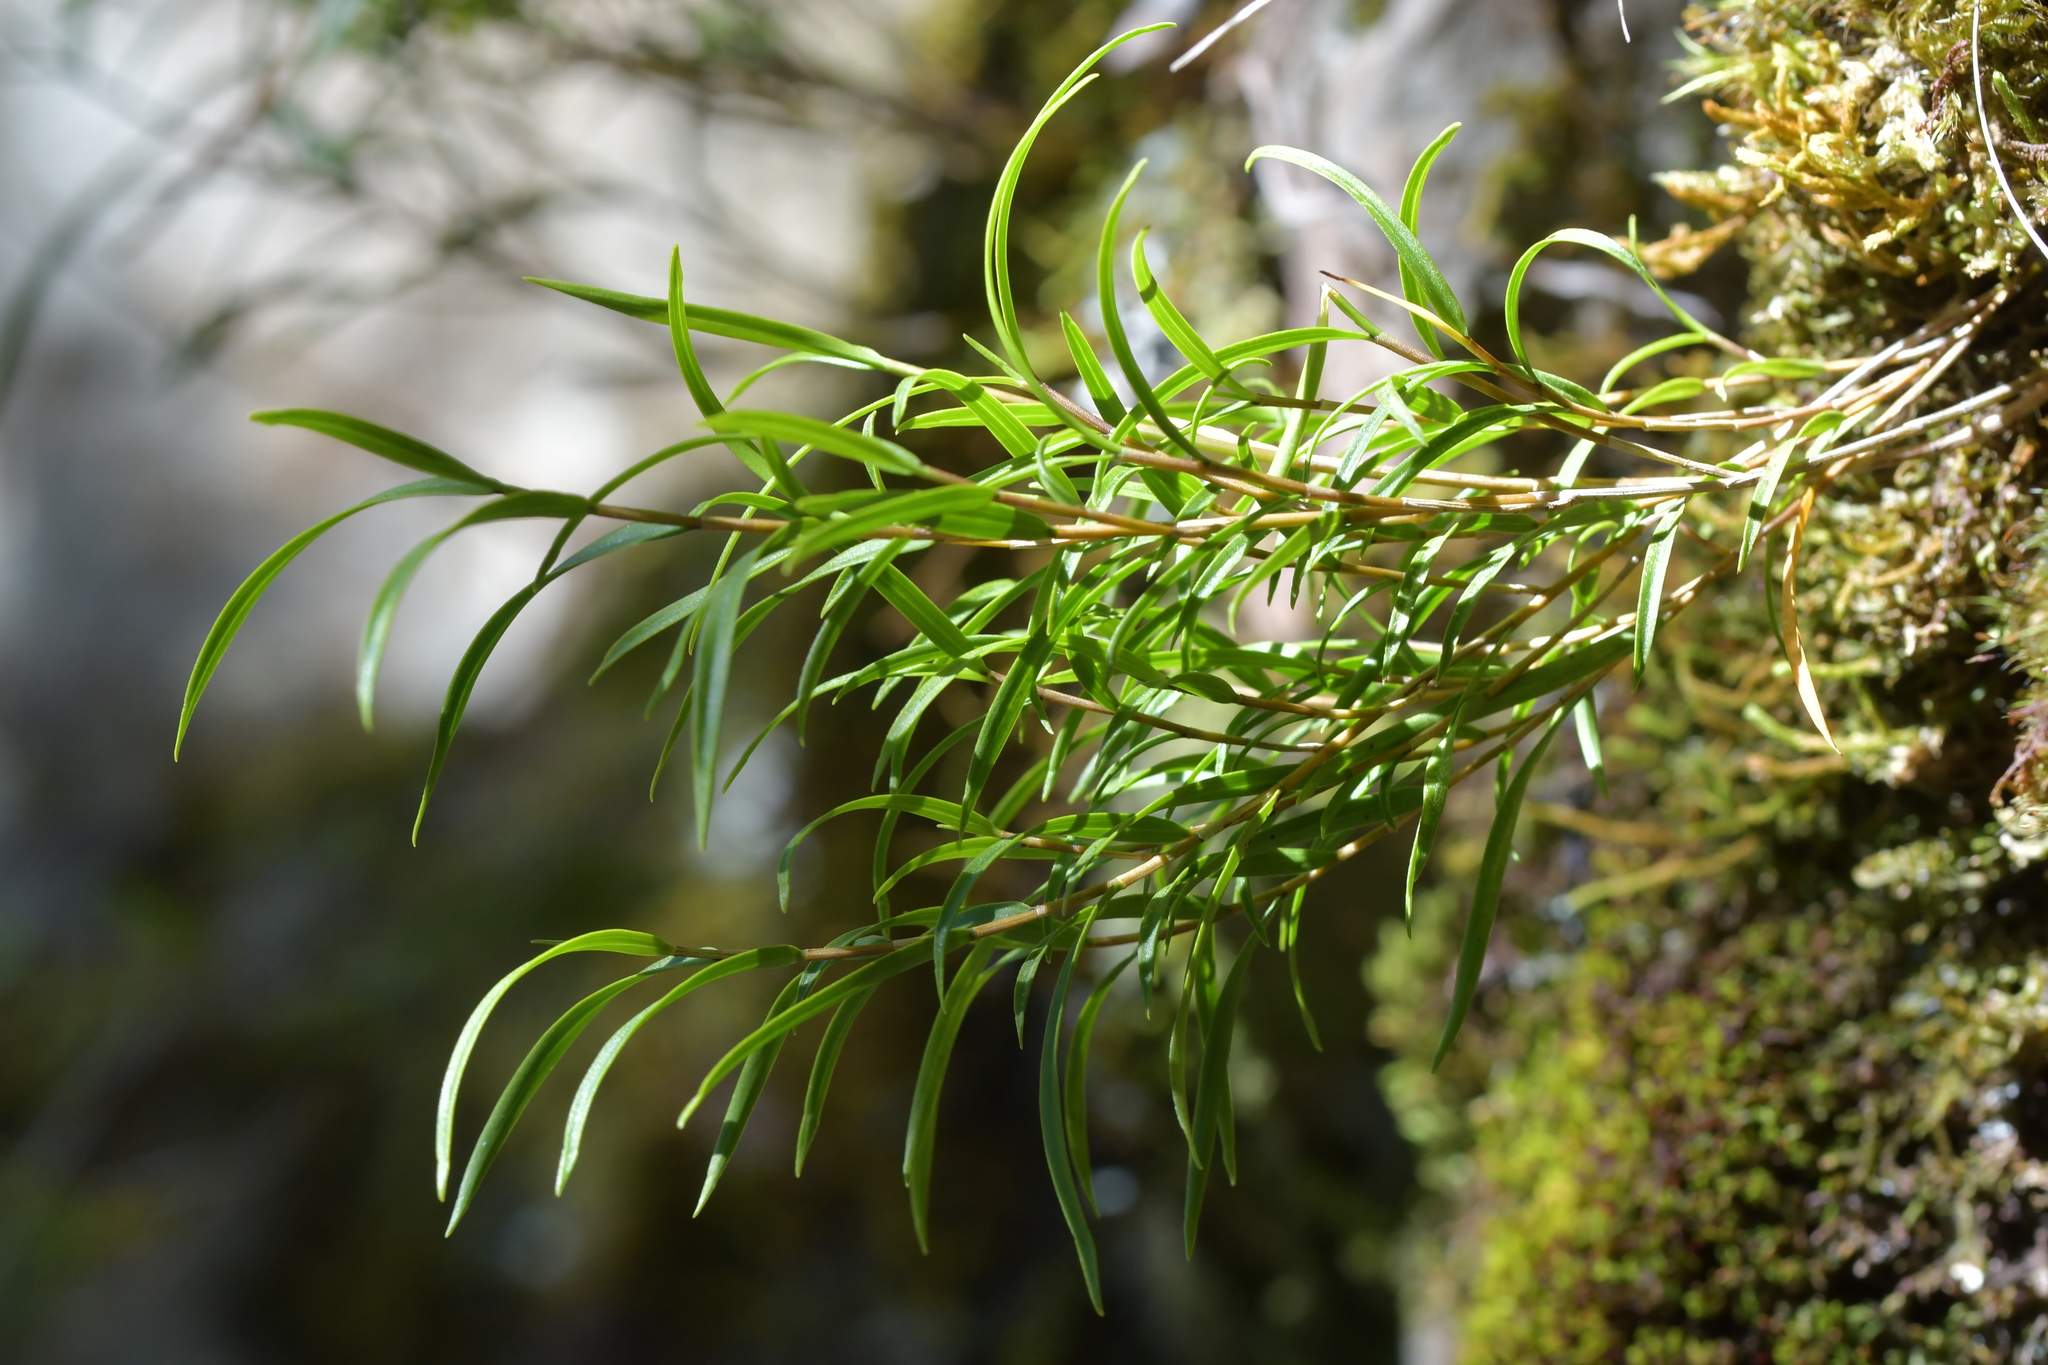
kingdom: Plantae
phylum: Tracheophyta
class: Liliopsida
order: Asparagales
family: Orchidaceae
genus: Dendrobium
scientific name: Dendrobium cunninghamii
